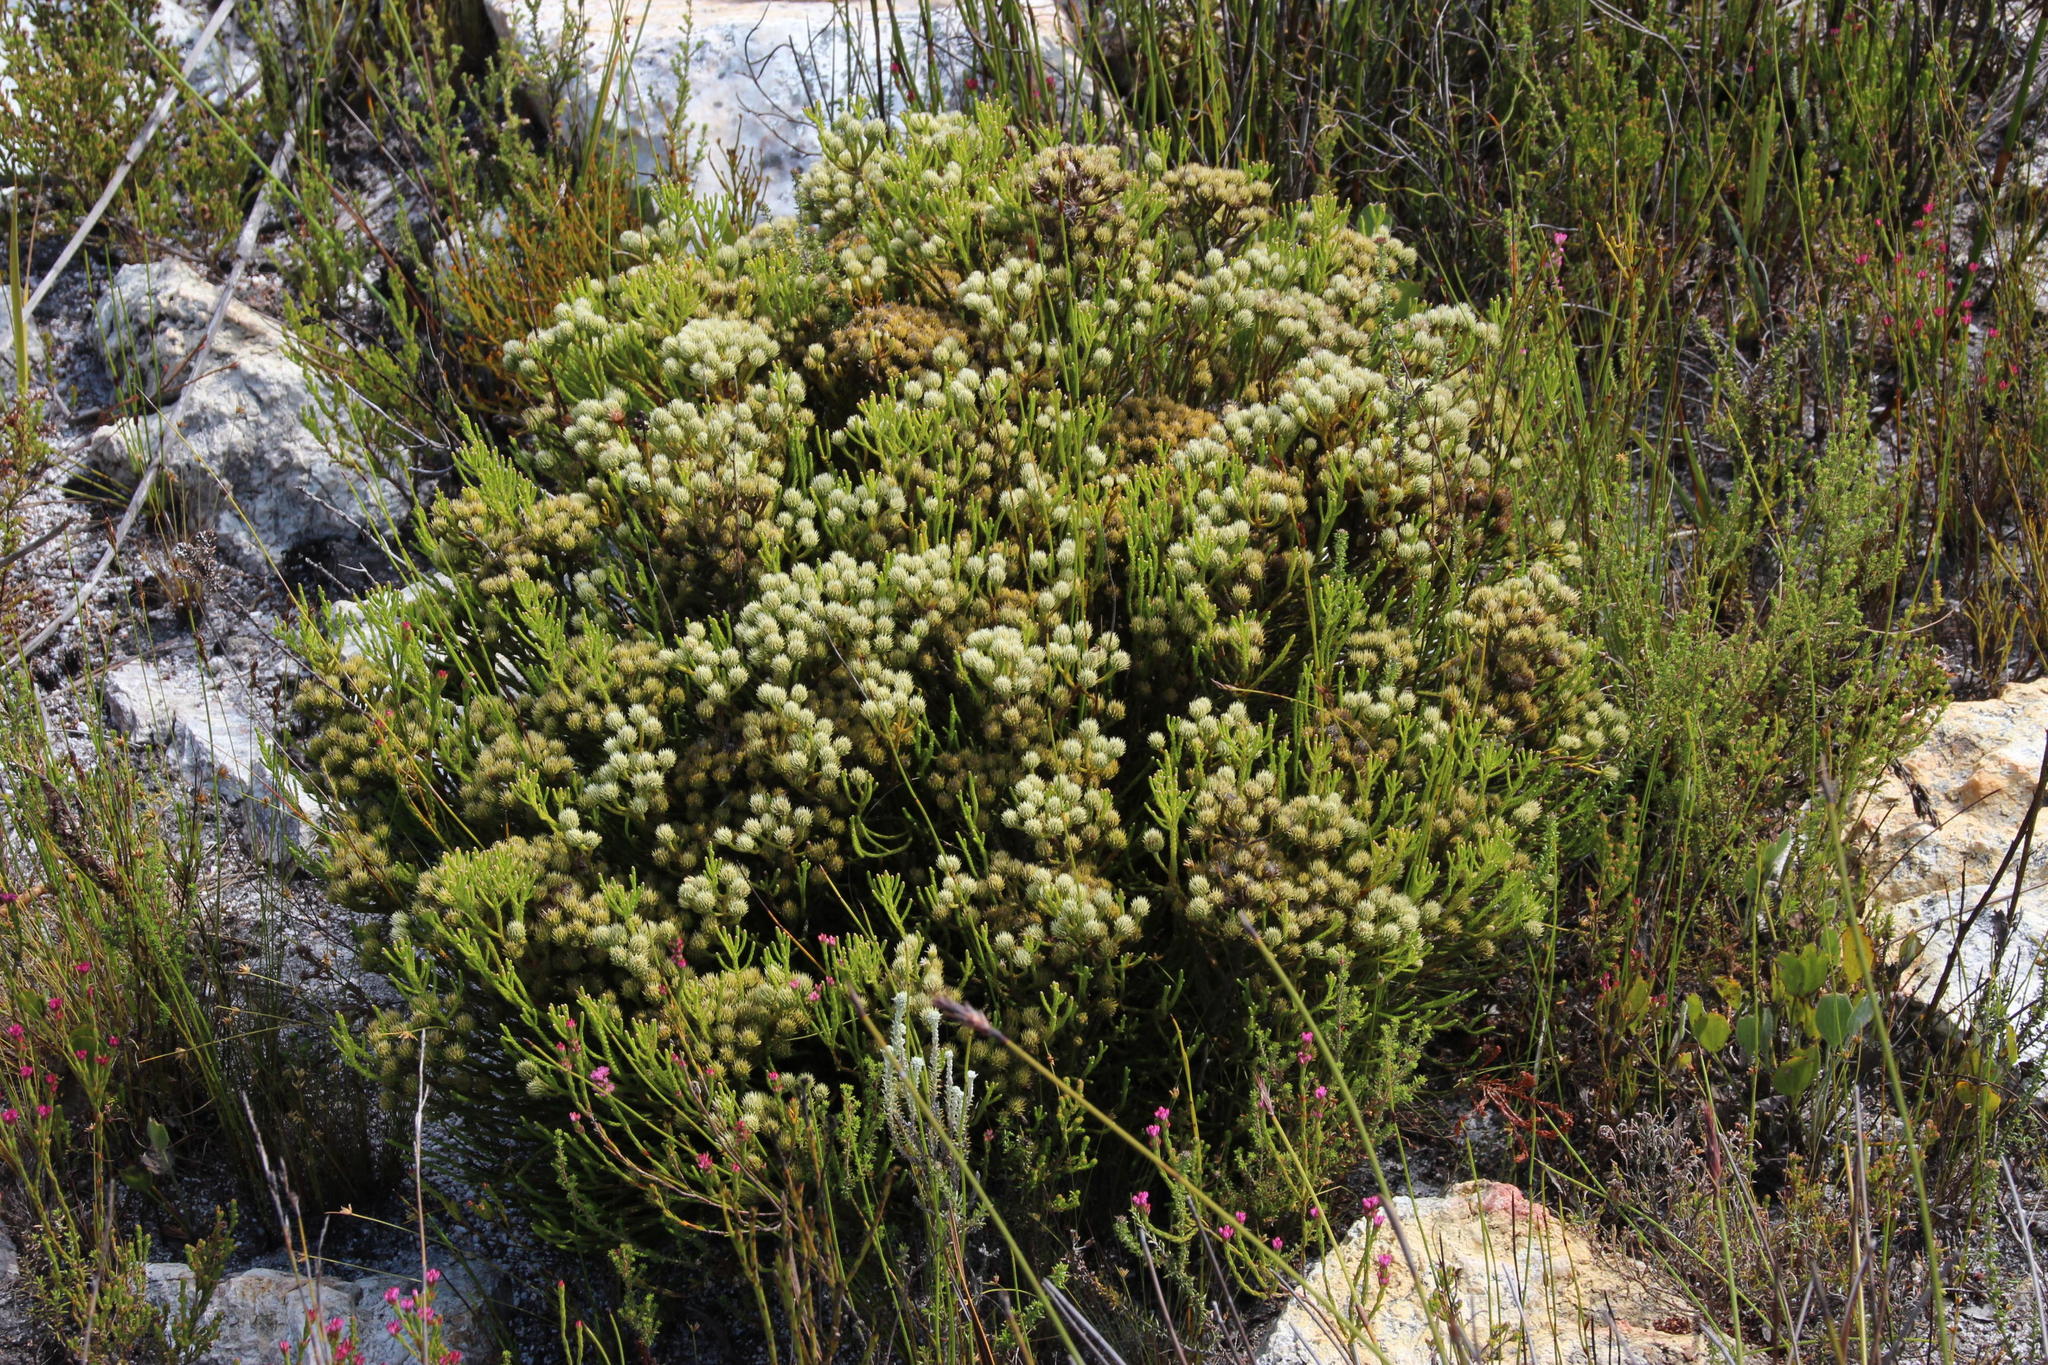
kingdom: Plantae
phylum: Tracheophyta
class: Magnoliopsida
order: Bruniales
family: Bruniaceae
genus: Brunia
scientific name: Brunia paleacea
